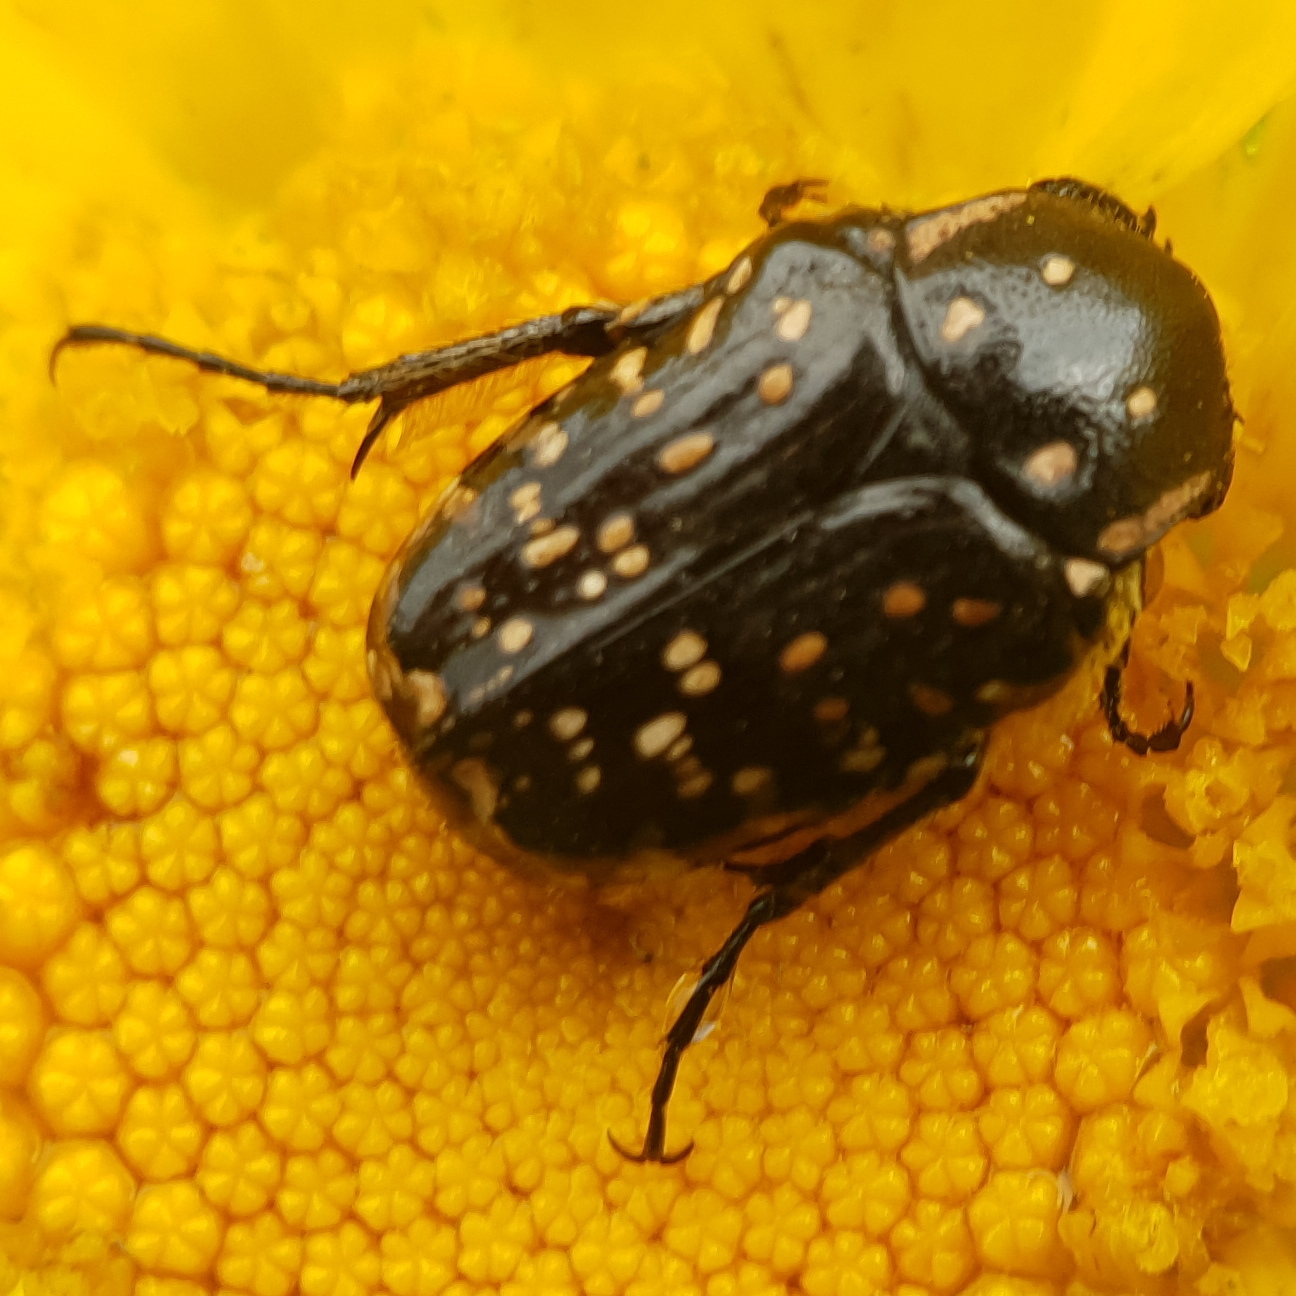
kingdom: Animalia
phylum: Arthropoda
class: Insecta
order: Coleoptera
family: Scarabaeidae
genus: Oxythyrea
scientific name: Oxythyrea noemi
